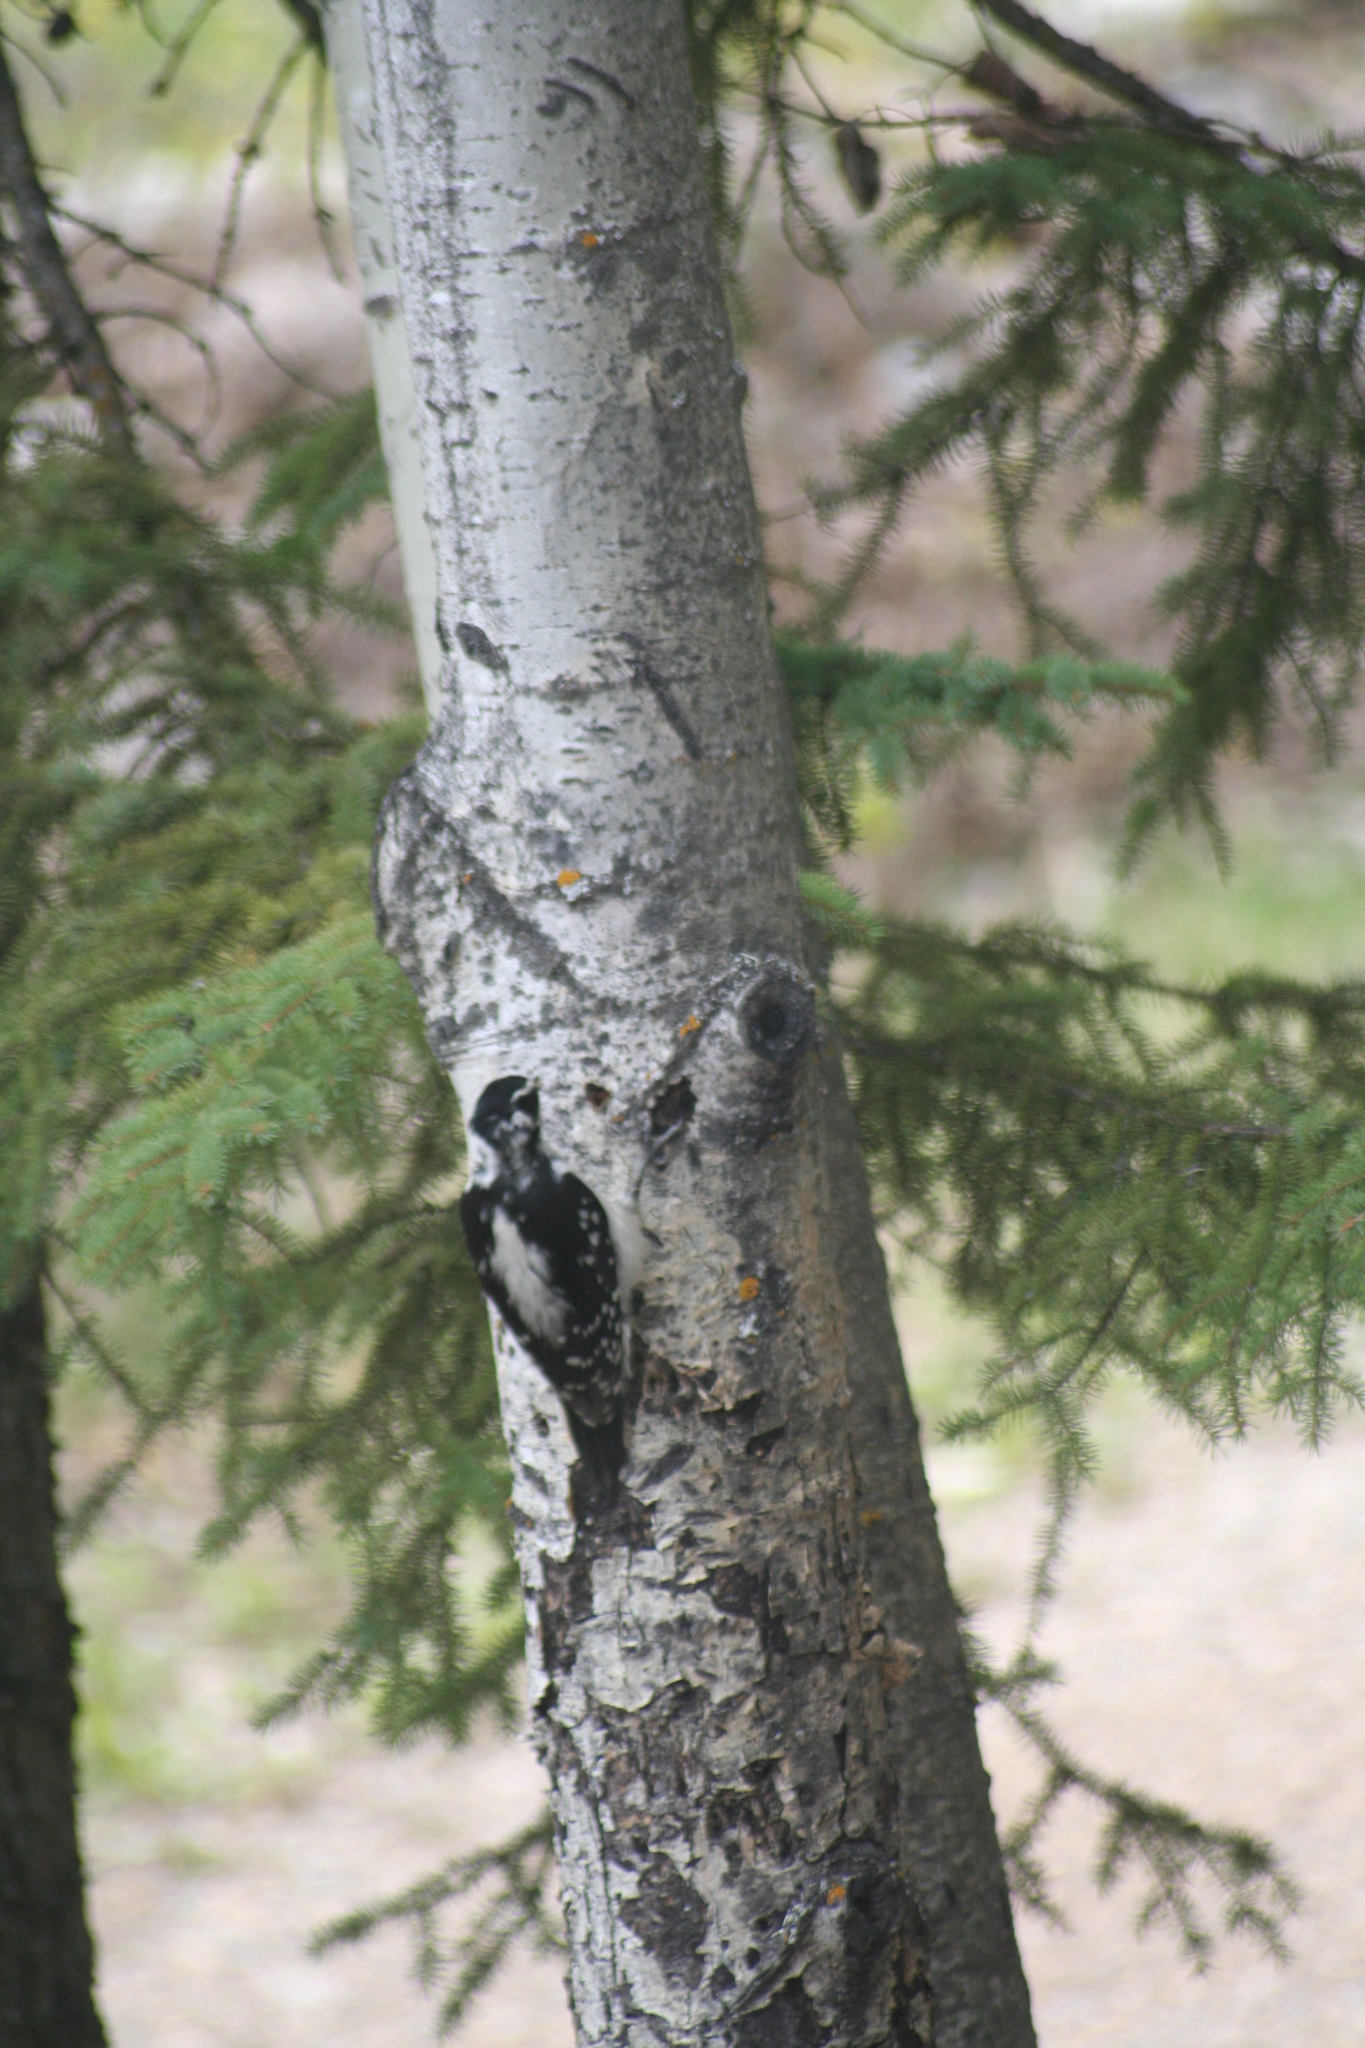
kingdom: Animalia
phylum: Chordata
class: Aves
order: Piciformes
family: Picidae
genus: Leuconotopicus
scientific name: Leuconotopicus villosus
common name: Hairy woodpecker
